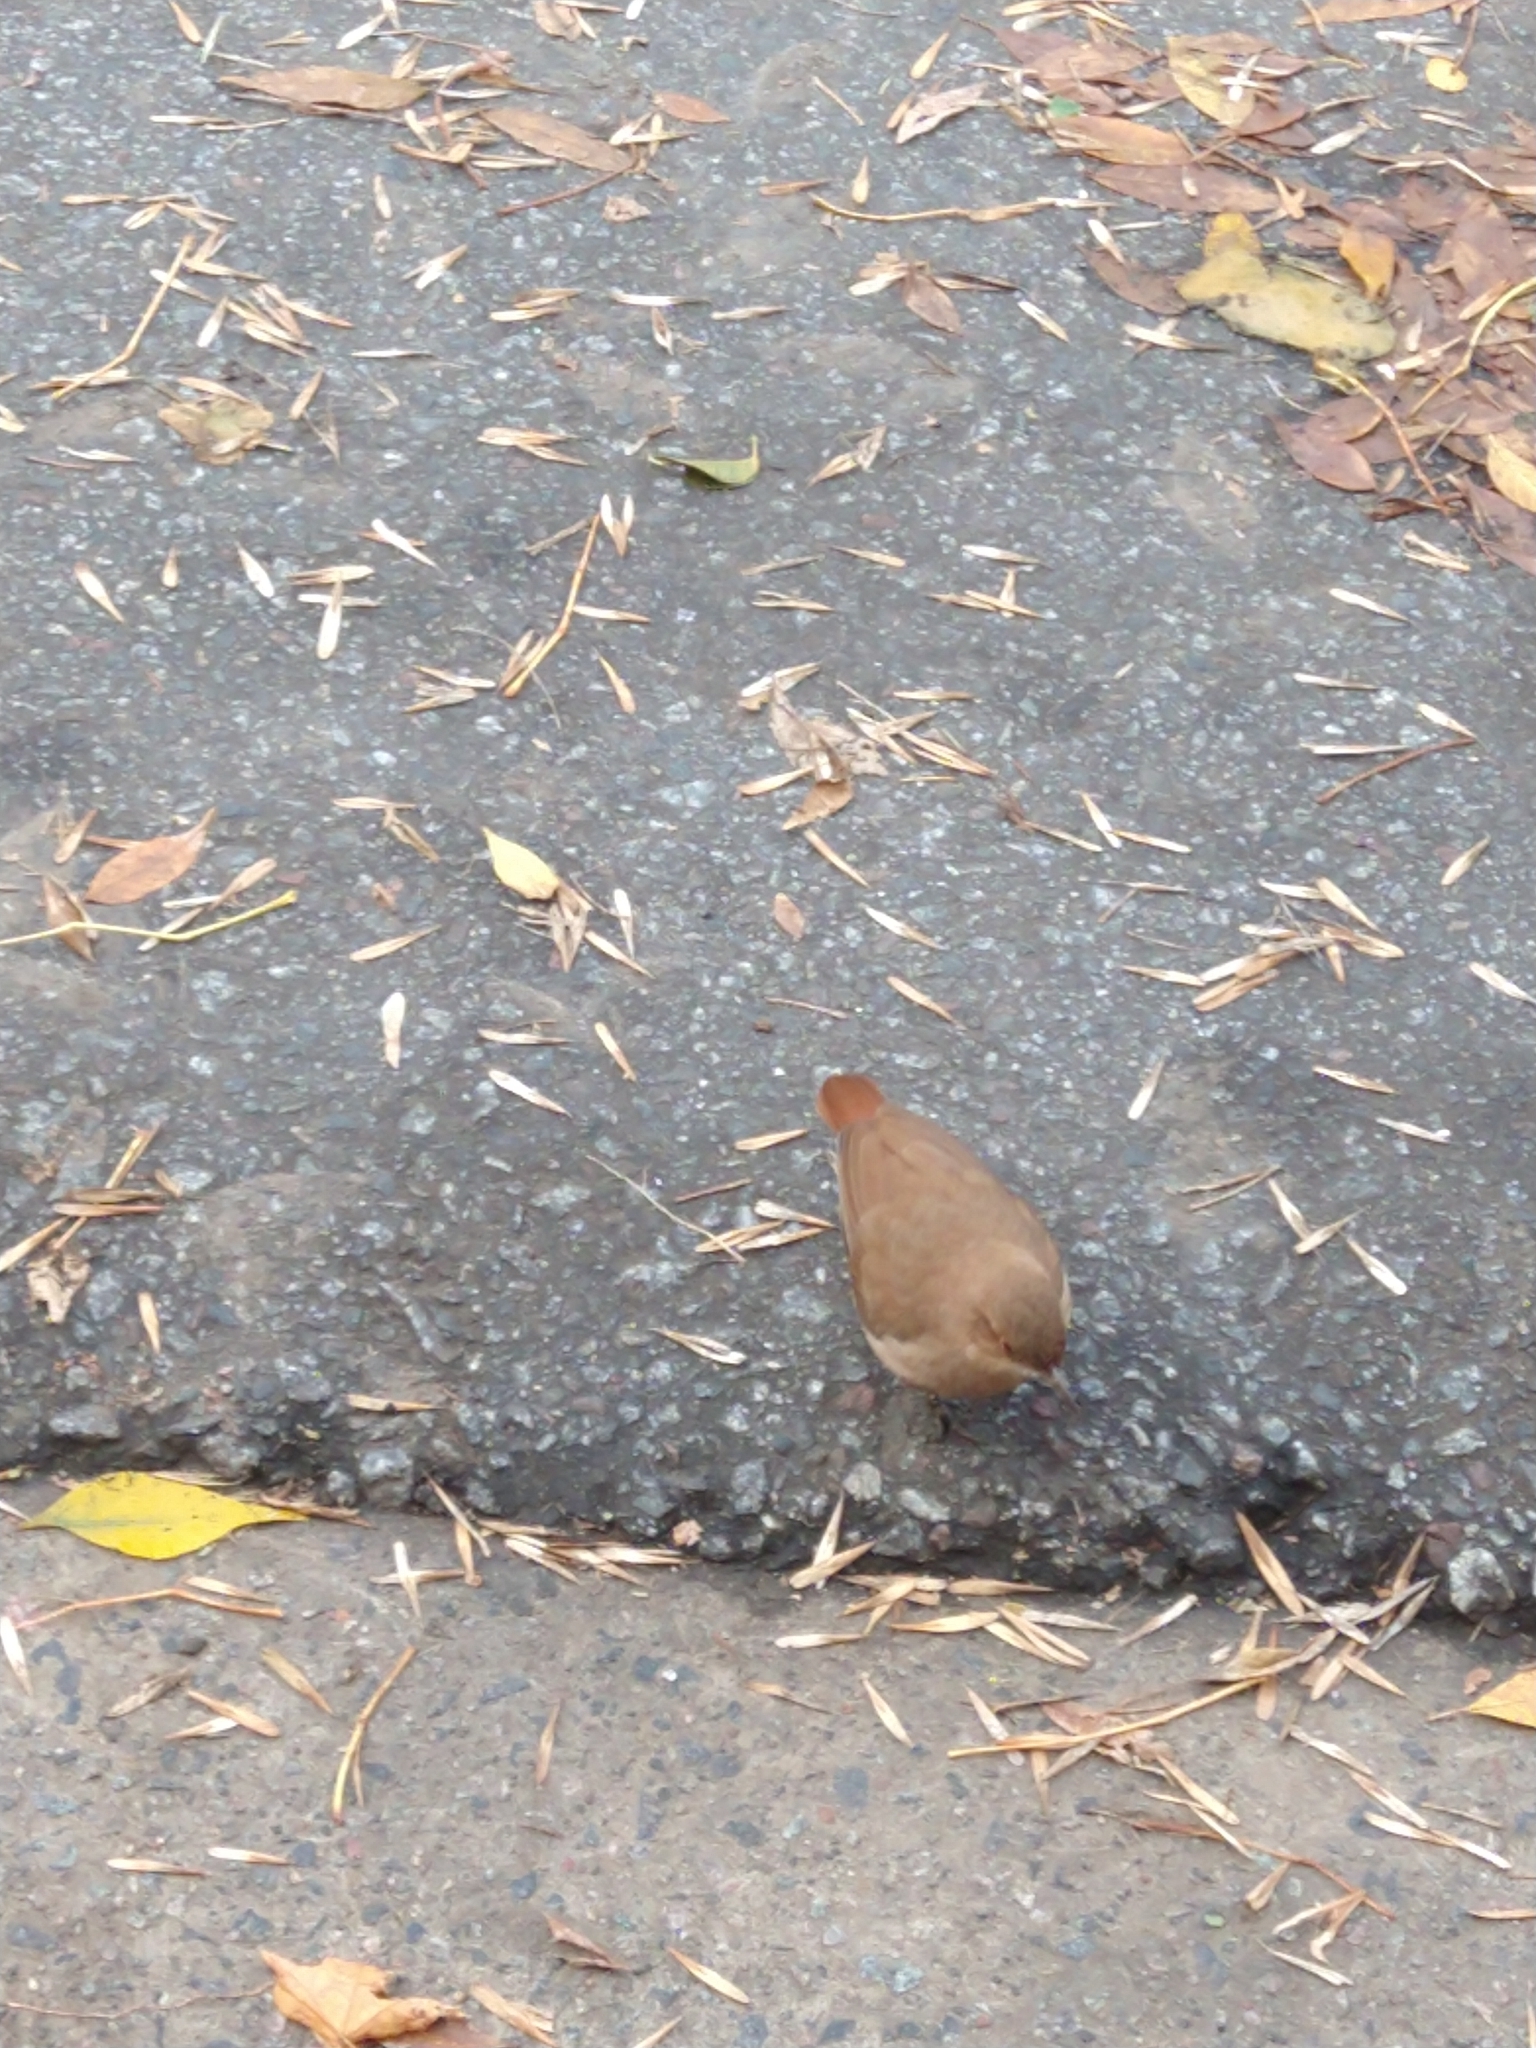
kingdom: Animalia
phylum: Chordata
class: Aves
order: Passeriformes
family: Furnariidae
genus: Furnarius
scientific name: Furnarius rufus
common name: Rufous hornero
